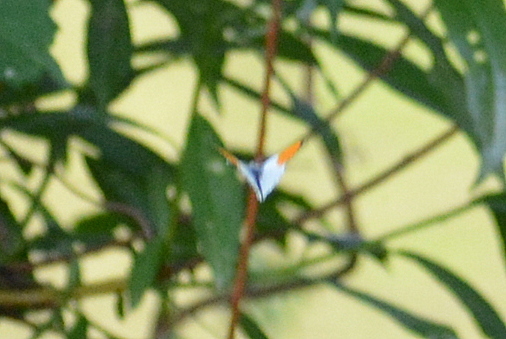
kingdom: Animalia
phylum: Arthropoda
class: Insecta
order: Lepidoptera
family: Pieridae
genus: Anthocharis
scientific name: Anthocharis cardamines
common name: Orange-tip
